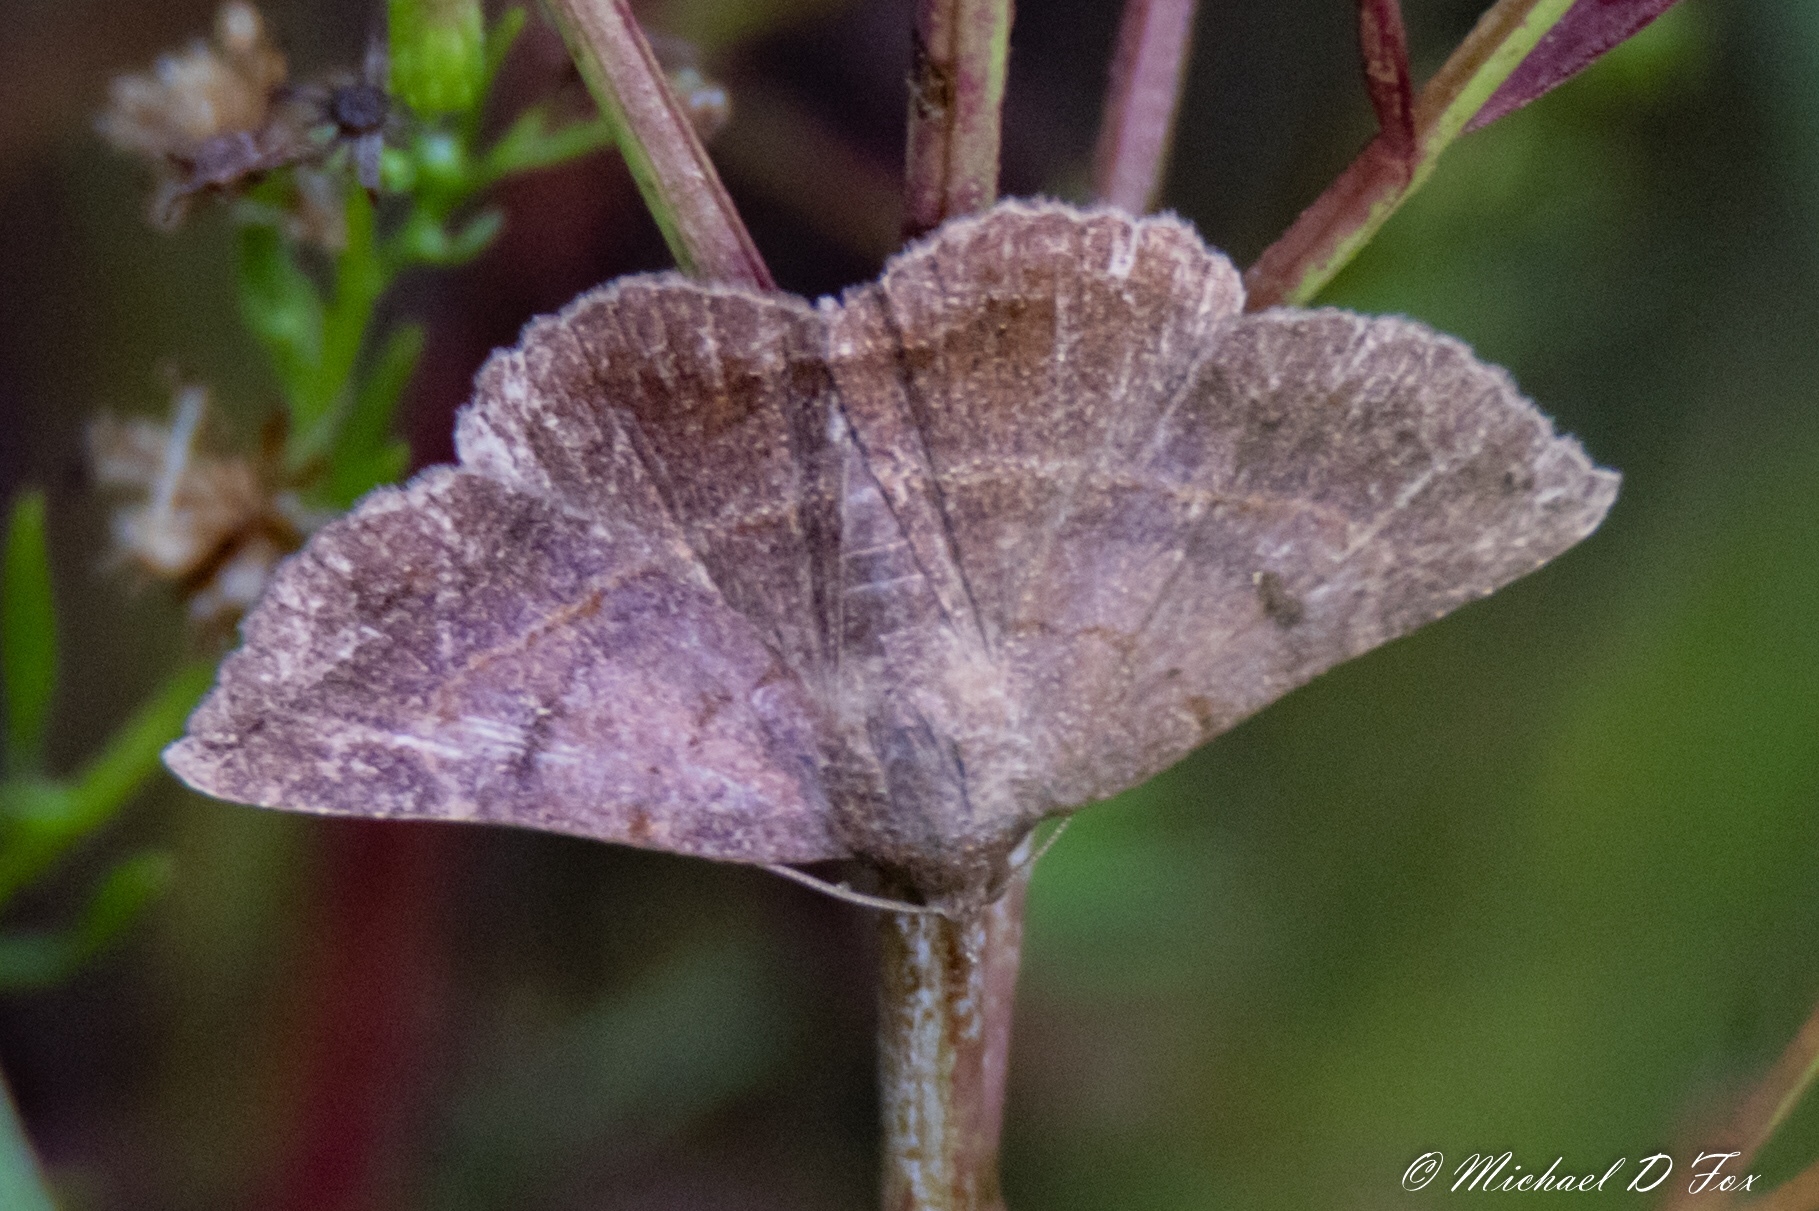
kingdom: Animalia
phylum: Arthropoda
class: Insecta
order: Lepidoptera
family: Erebidae
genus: Lesmone
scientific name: Lesmone detrahens
